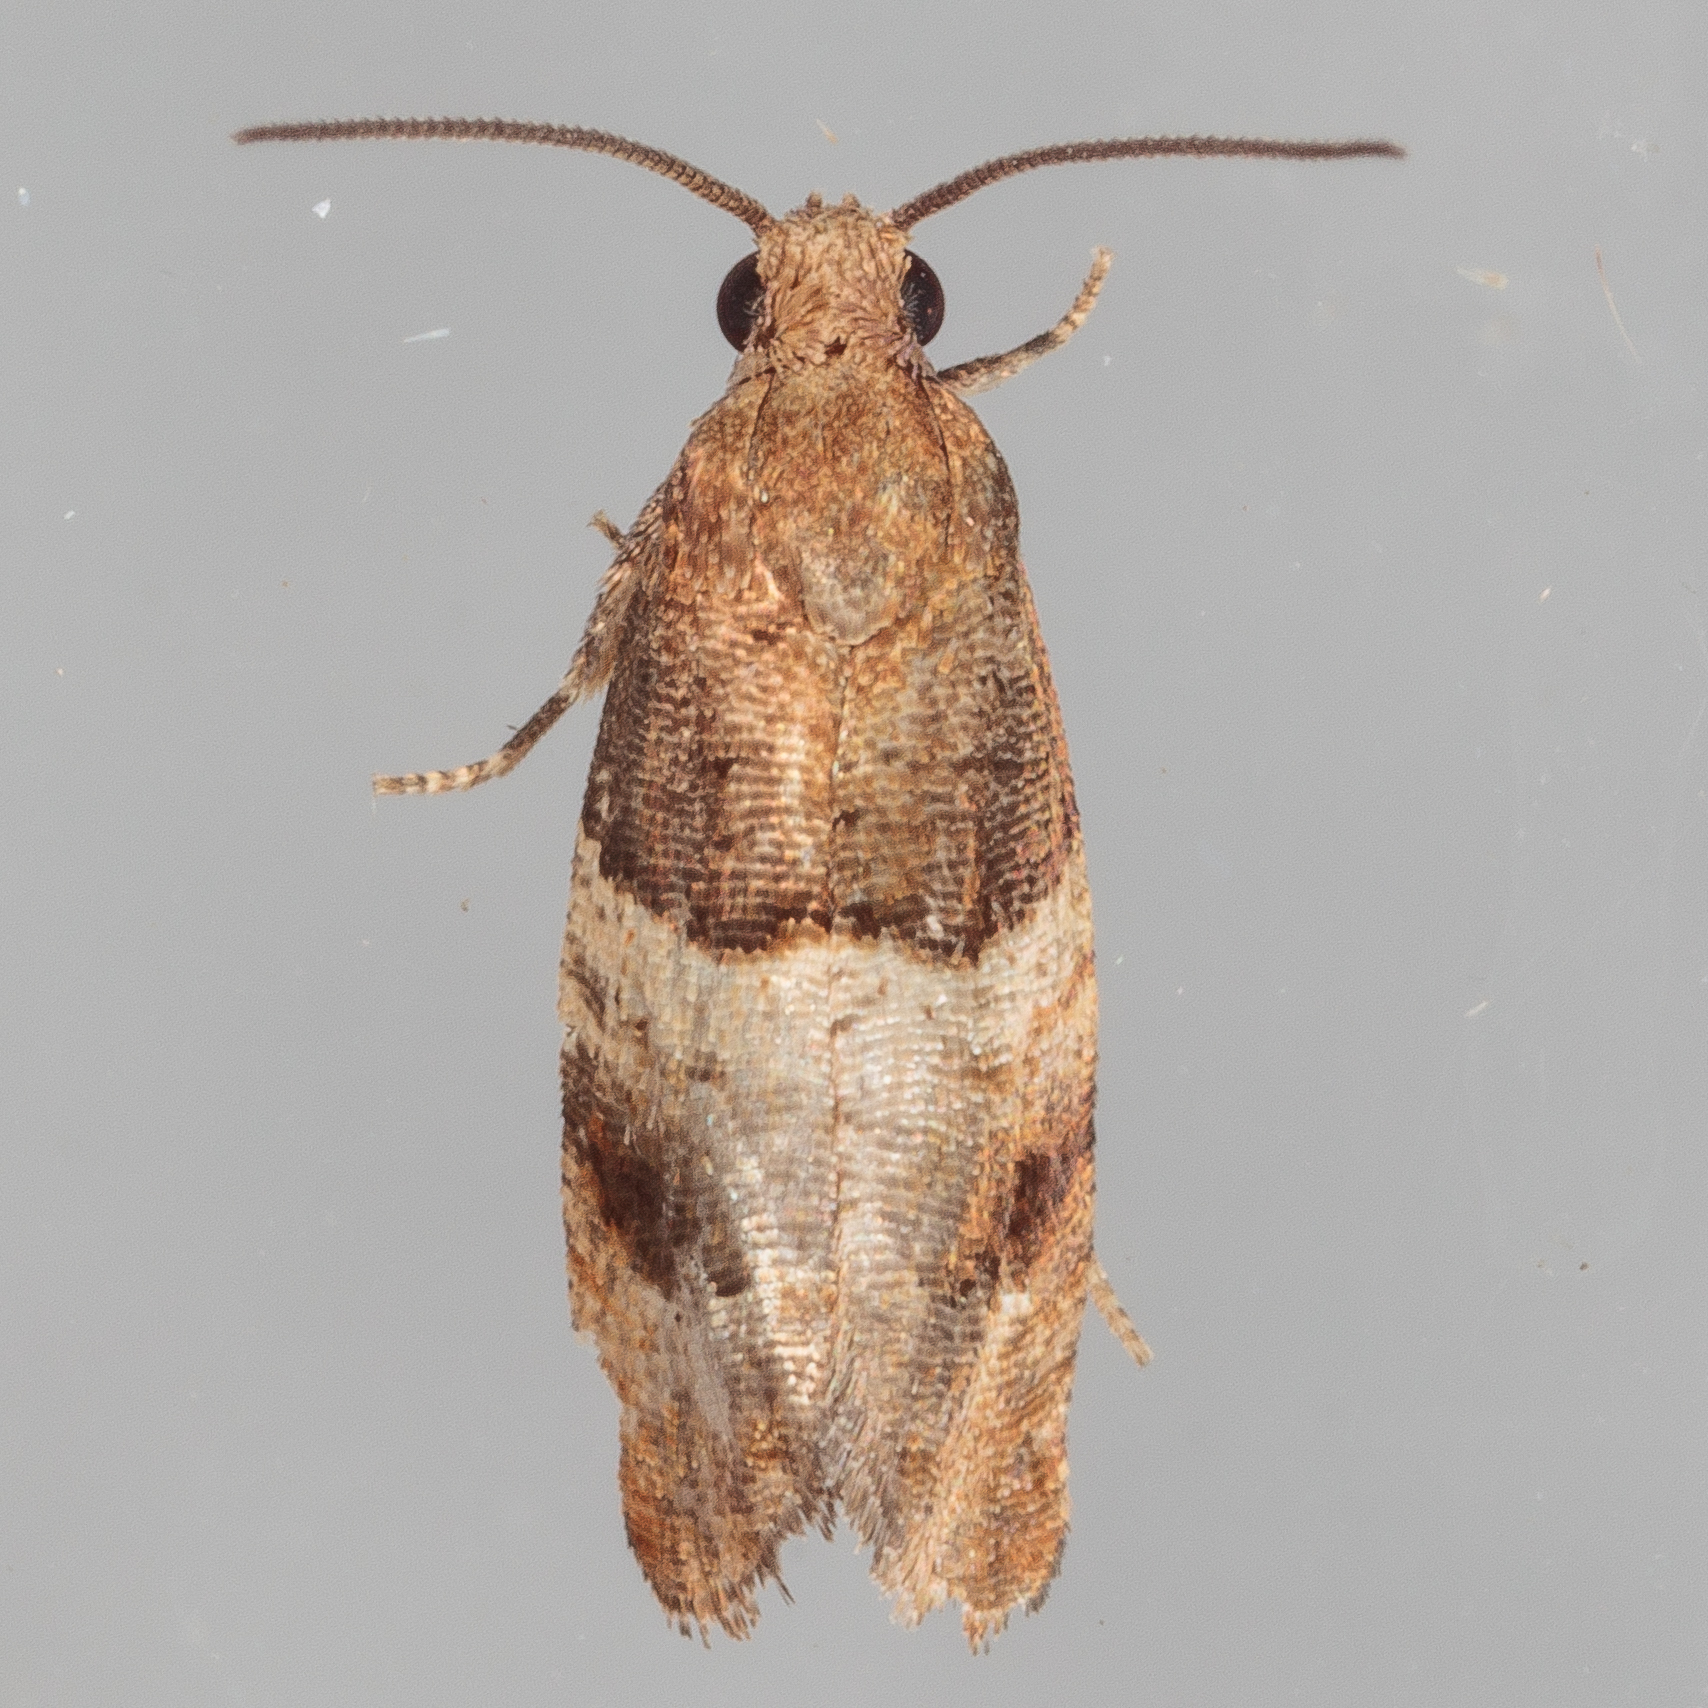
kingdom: Animalia
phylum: Arthropoda
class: Insecta
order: Lepidoptera
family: Tortricidae
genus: Larisa
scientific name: Larisa subsolana
